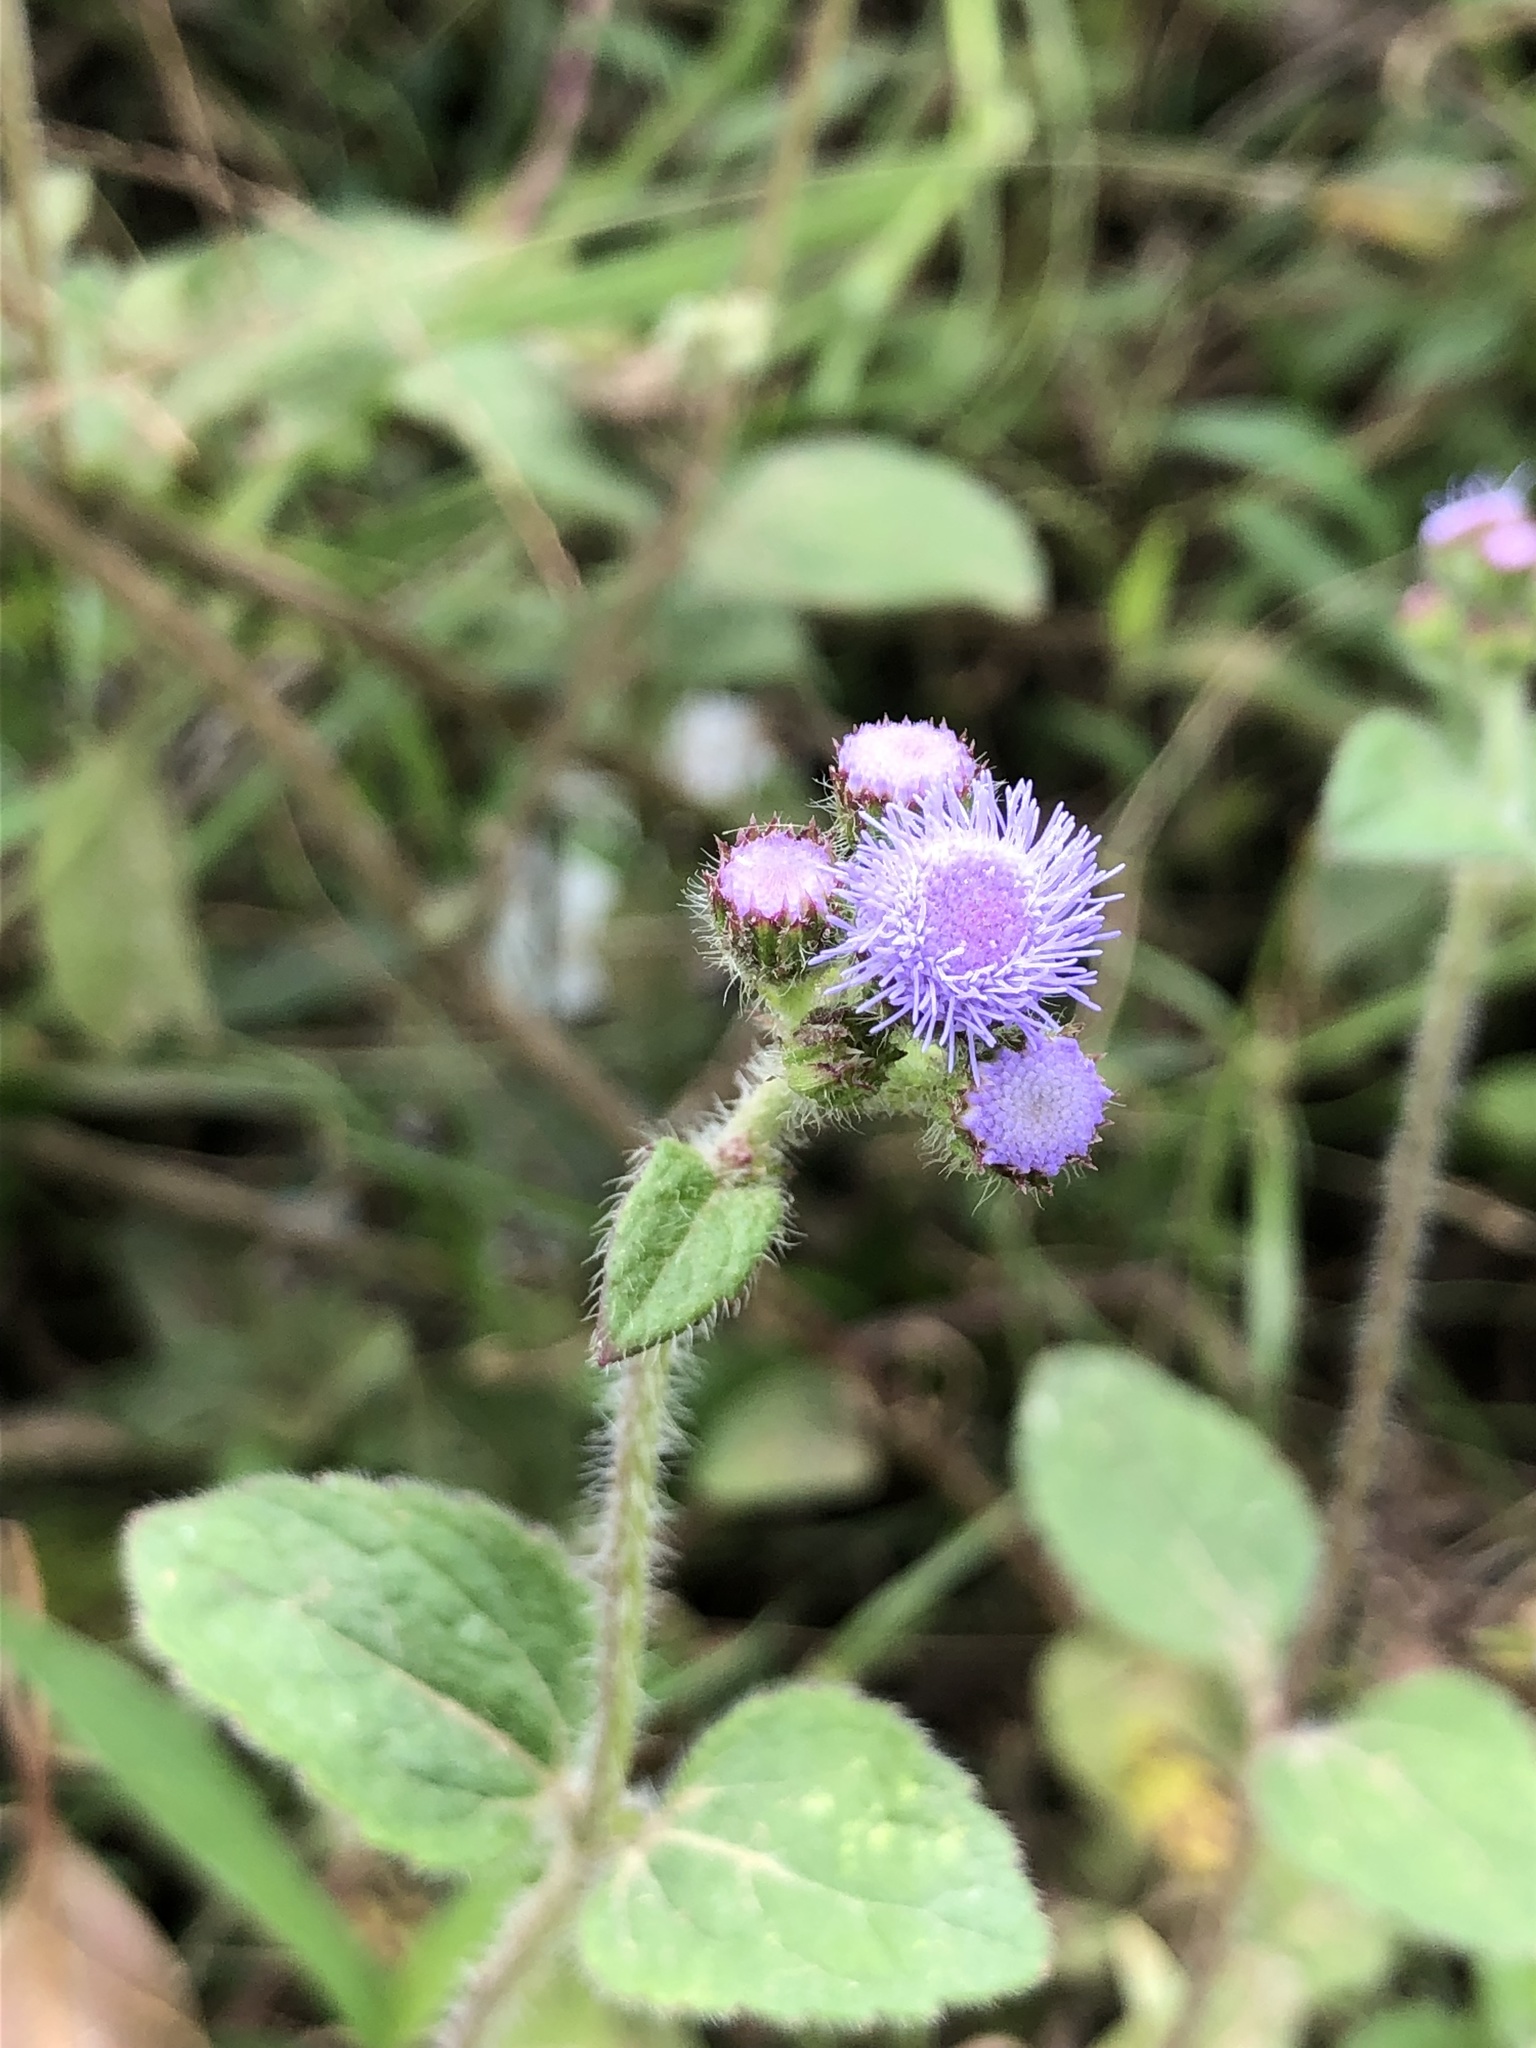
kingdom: Plantae
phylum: Tracheophyta
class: Magnoliopsida
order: Asterales
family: Asteraceae
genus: Ageratum
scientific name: Ageratum houstonianum
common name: Bluemink
